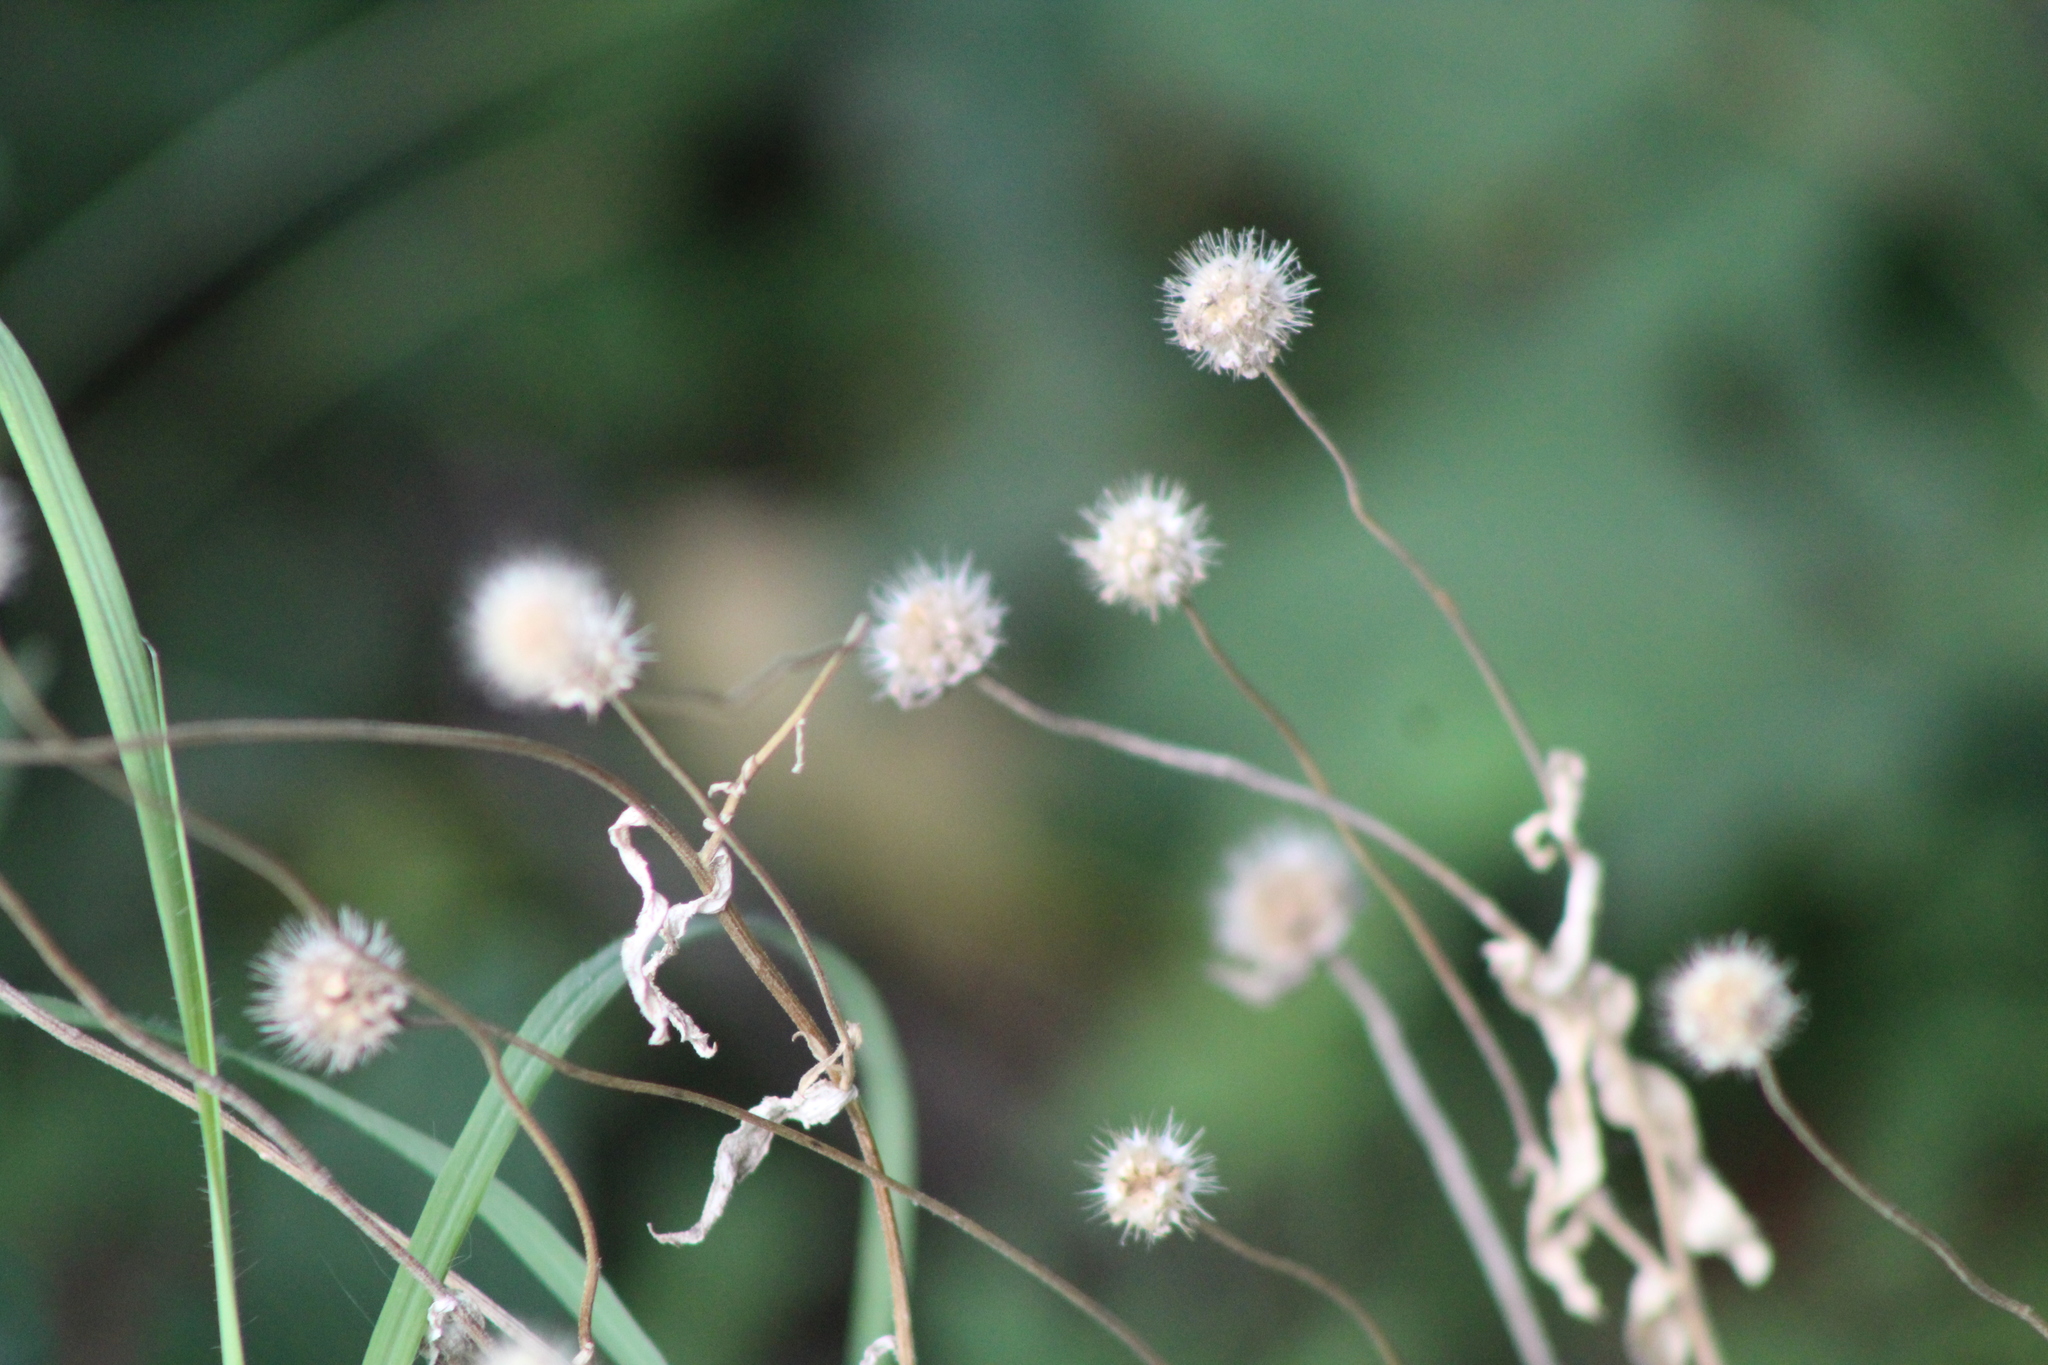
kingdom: Plantae
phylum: Tracheophyta
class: Magnoliopsida
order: Asterales
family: Asteraceae
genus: Gaillardia
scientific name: Gaillardia
